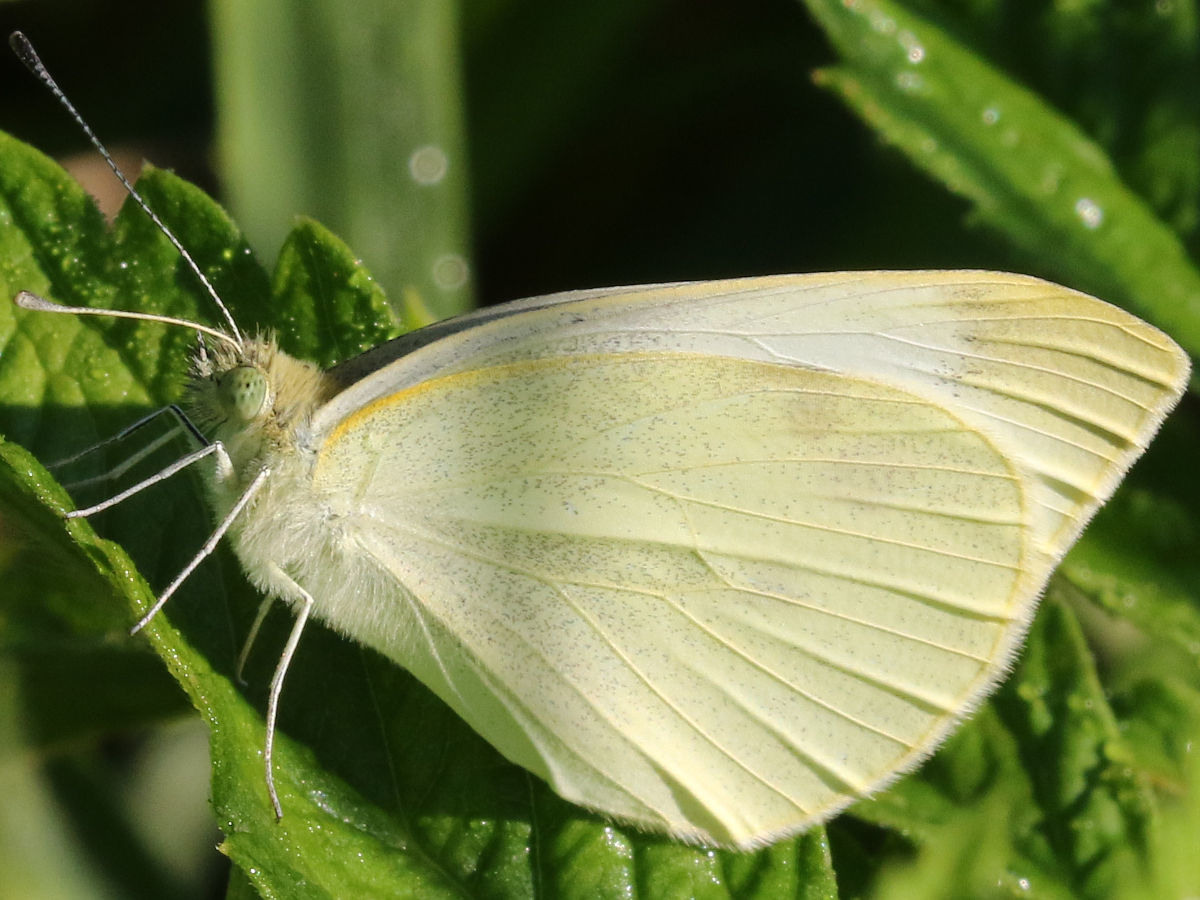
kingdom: Animalia
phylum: Arthropoda
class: Insecta
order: Lepidoptera
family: Pieridae
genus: Pieris
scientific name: Pieris rapae
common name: Small white
